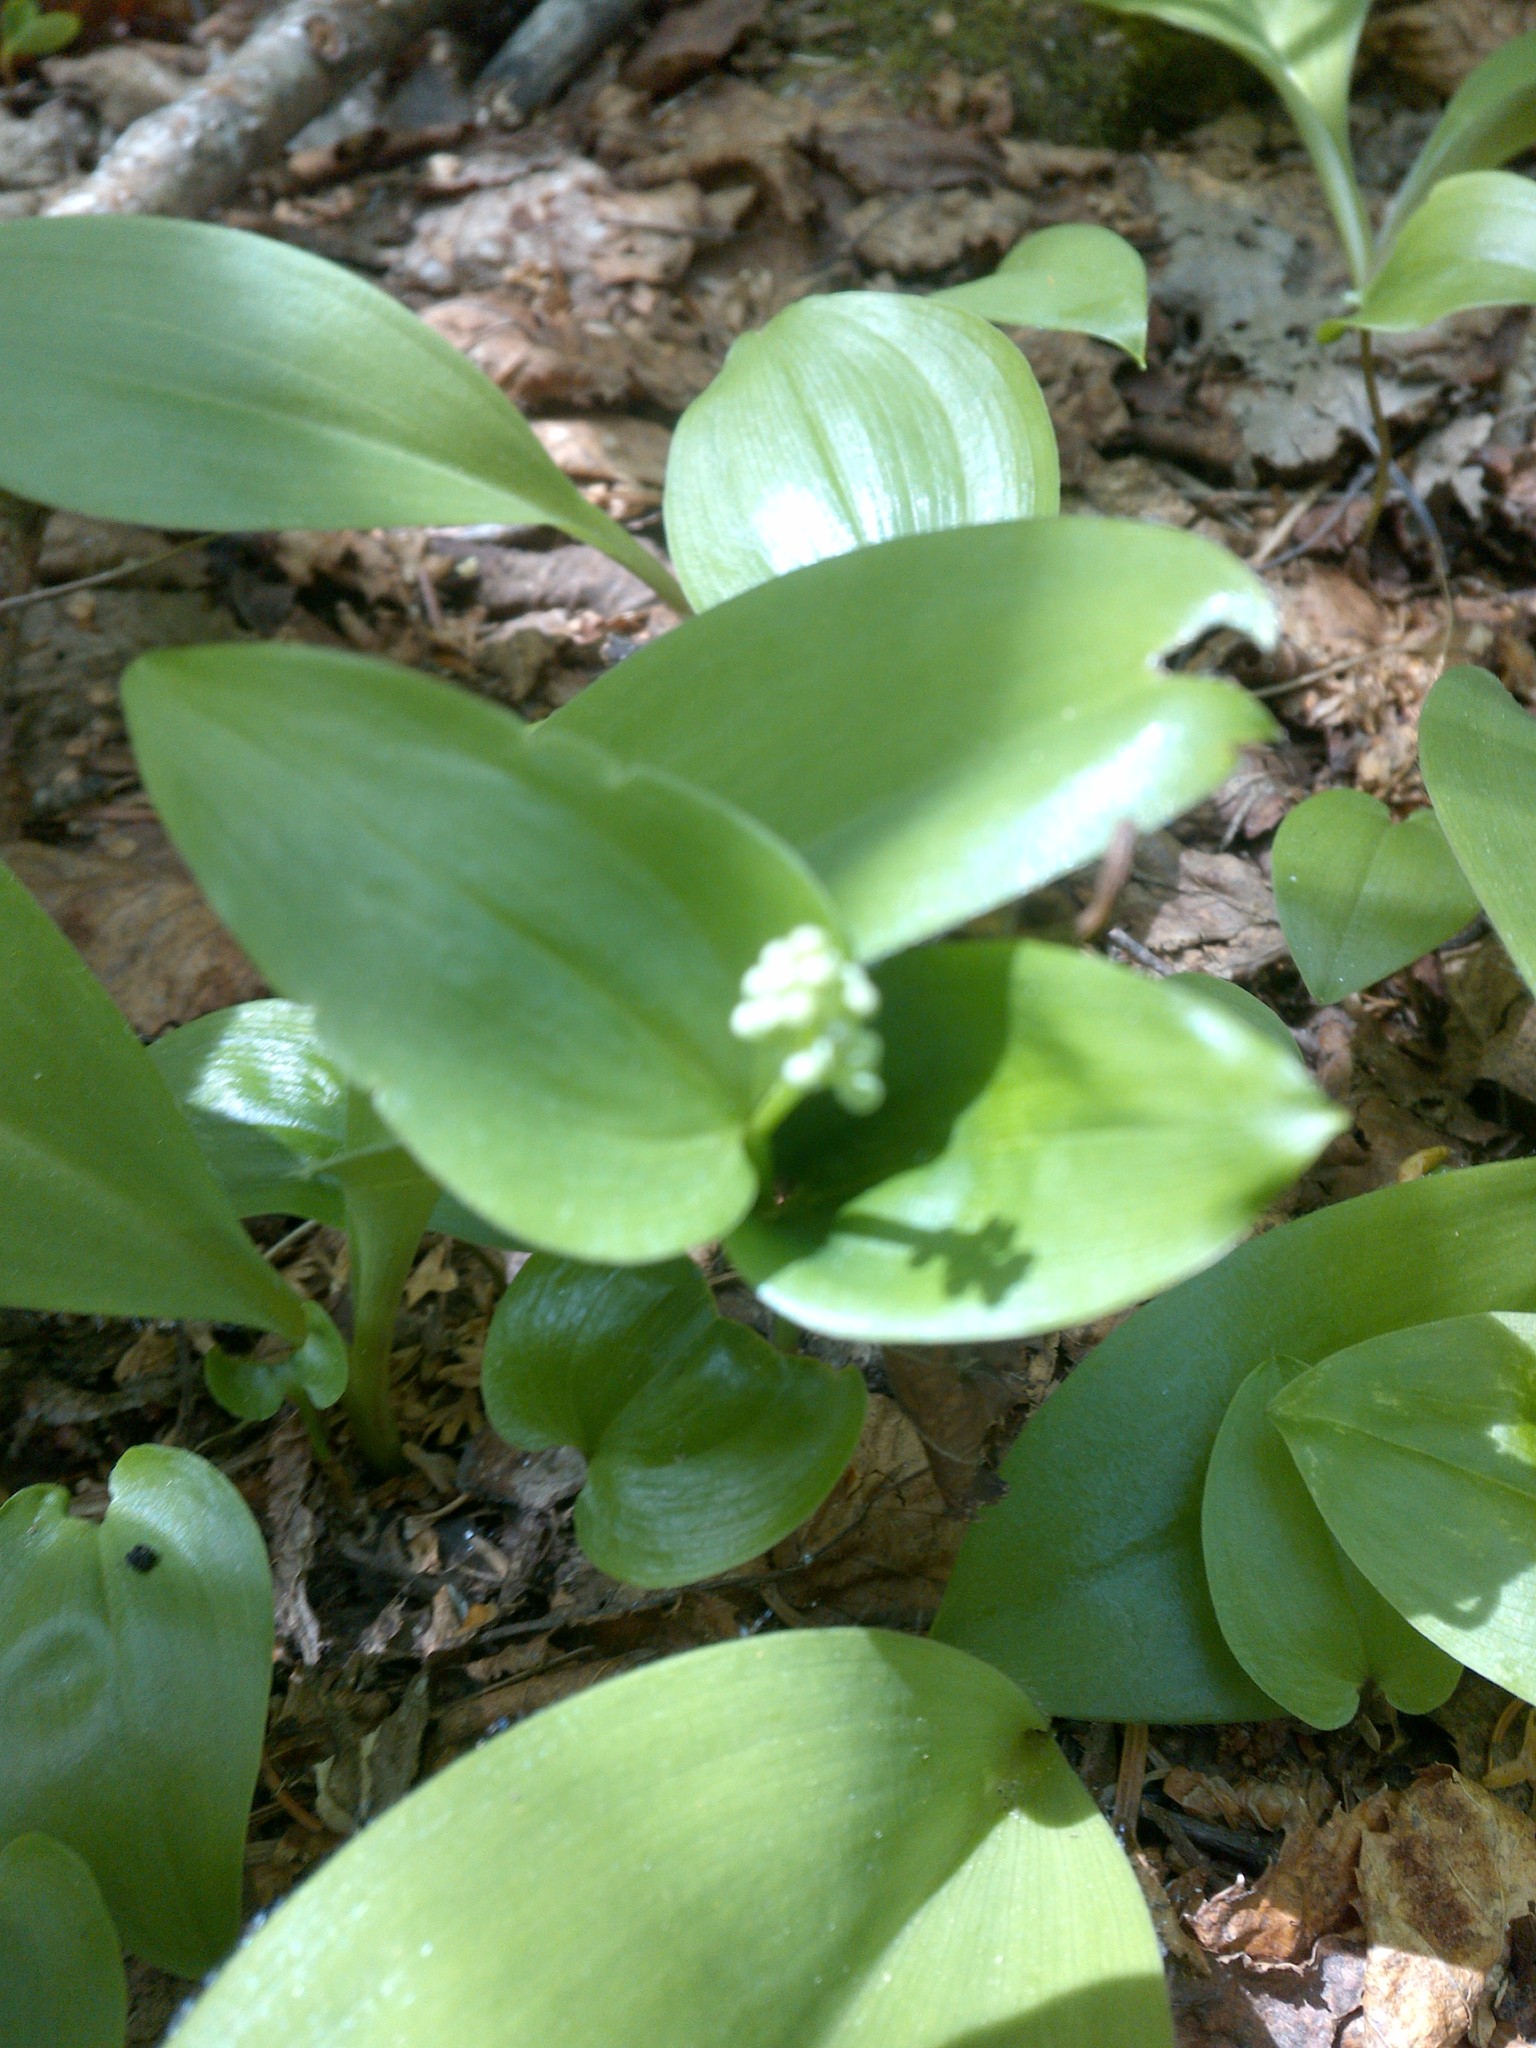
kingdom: Plantae
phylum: Tracheophyta
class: Liliopsida
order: Asparagales
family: Asparagaceae
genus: Maianthemum
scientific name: Maianthemum canadense
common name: False lily-of-the-valley
